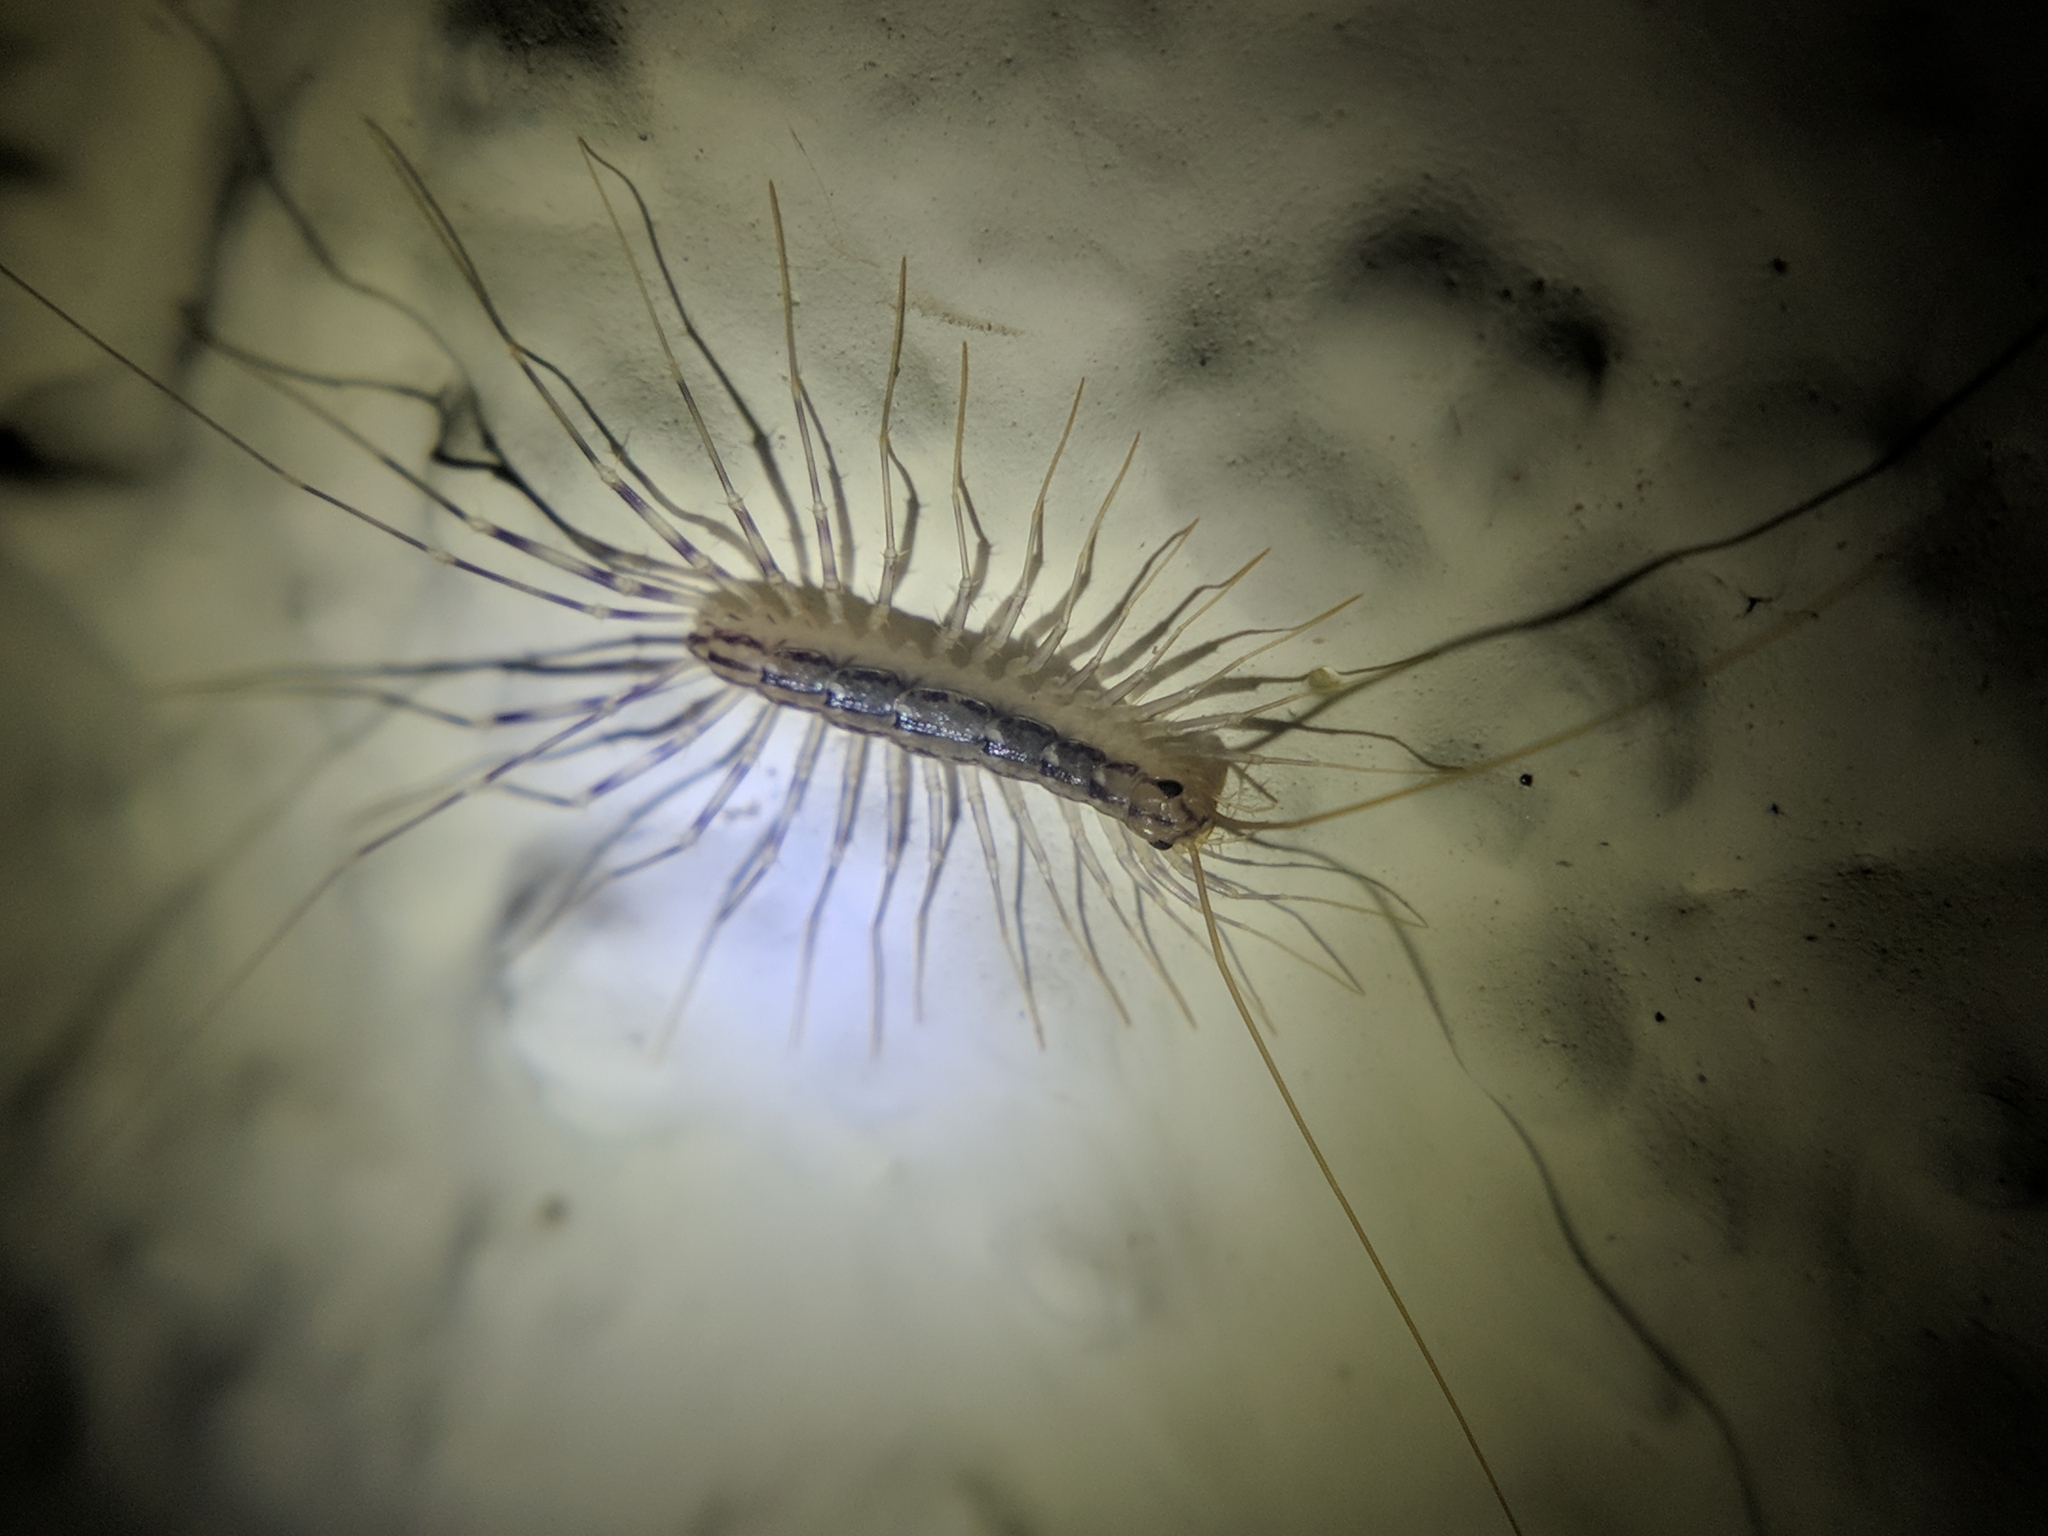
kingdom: Animalia
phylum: Arthropoda
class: Chilopoda
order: Scutigeromorpha
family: Scutigeridae
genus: Scutigera
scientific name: Scutigera coleoptrata
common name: House centipede
